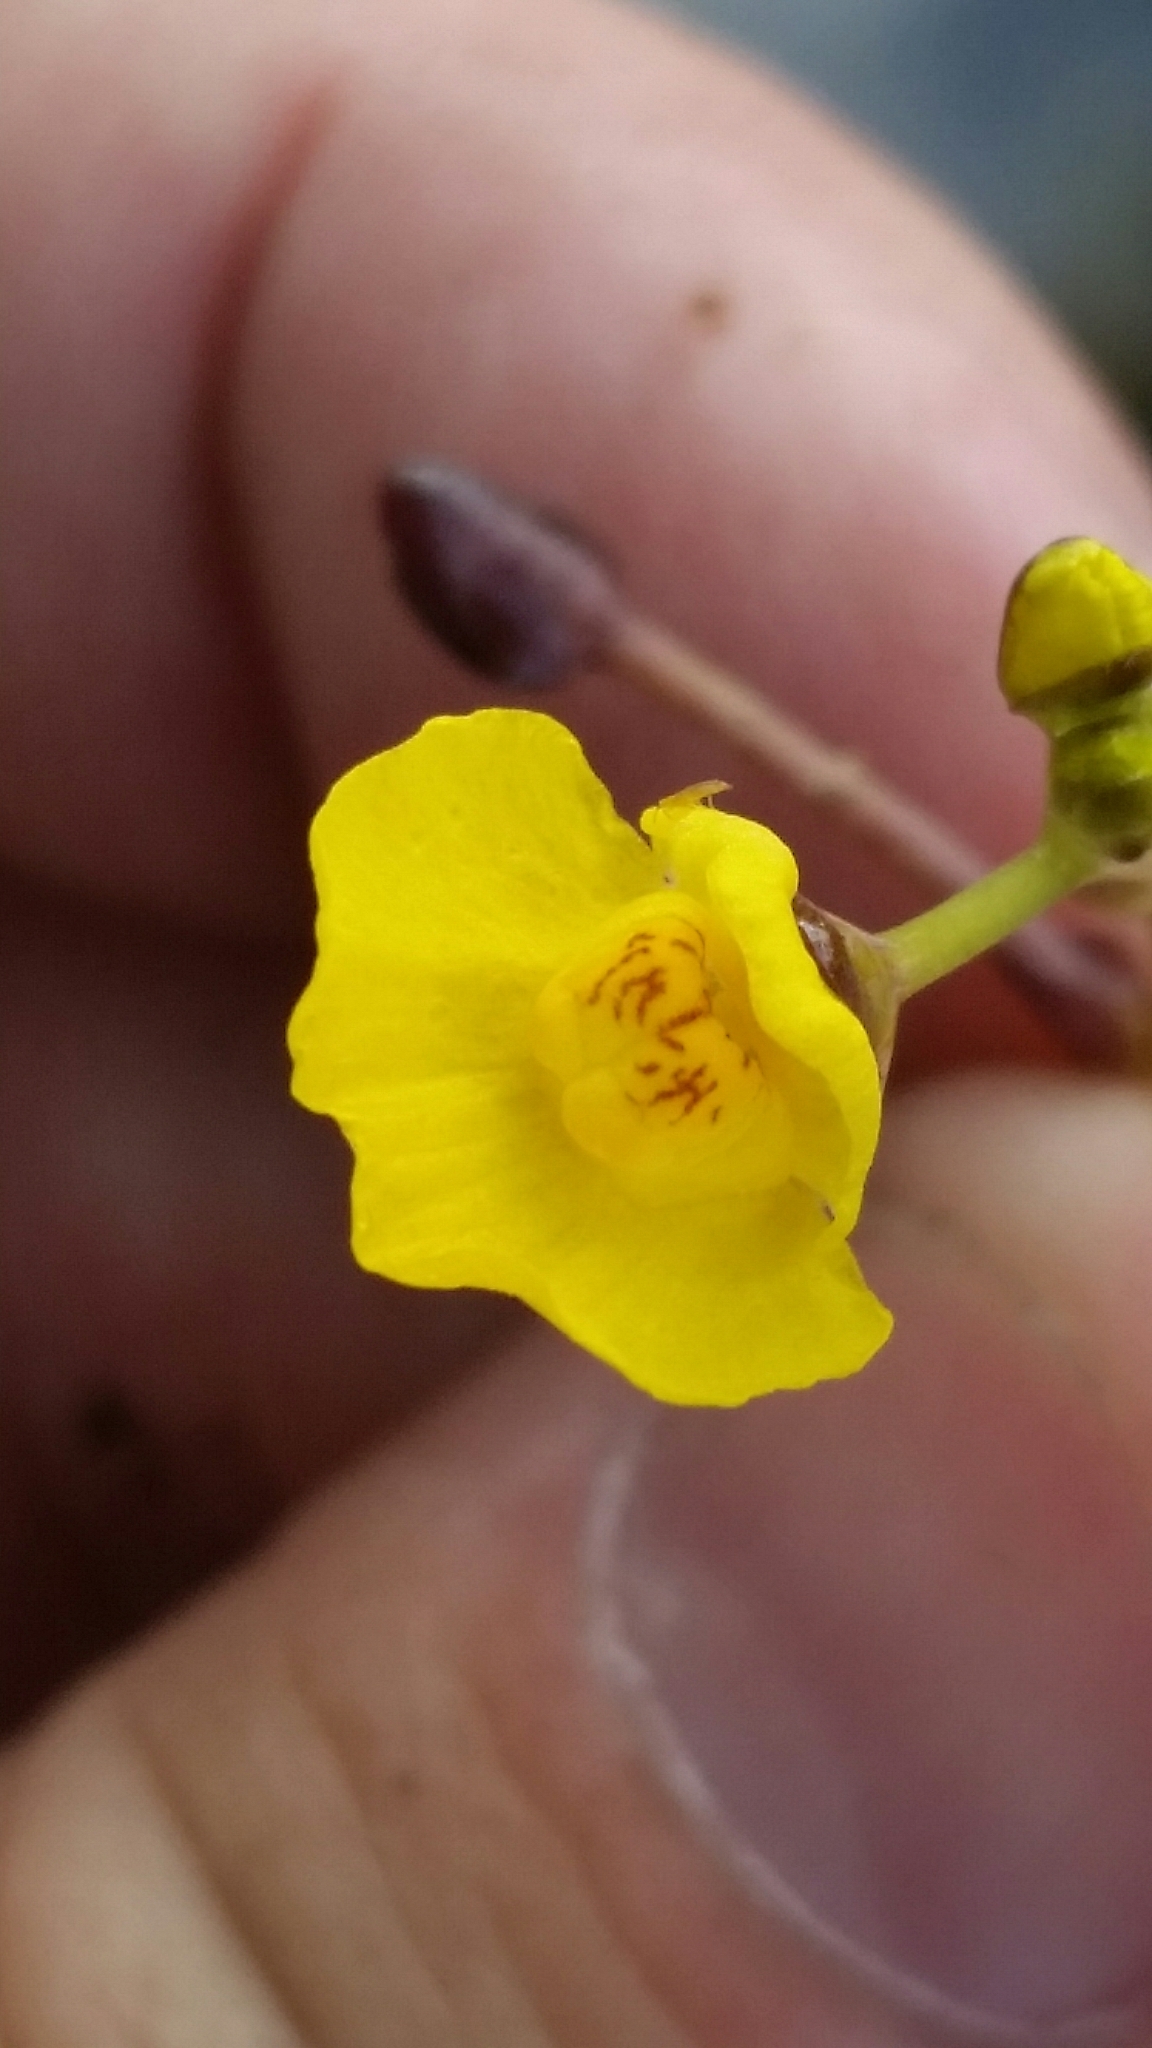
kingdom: Plantae
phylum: Tracheophyta
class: Magnoliopsida
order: Lamiales
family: Lentibulariaceae
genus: Utricularia
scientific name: Utricularia foliosa
